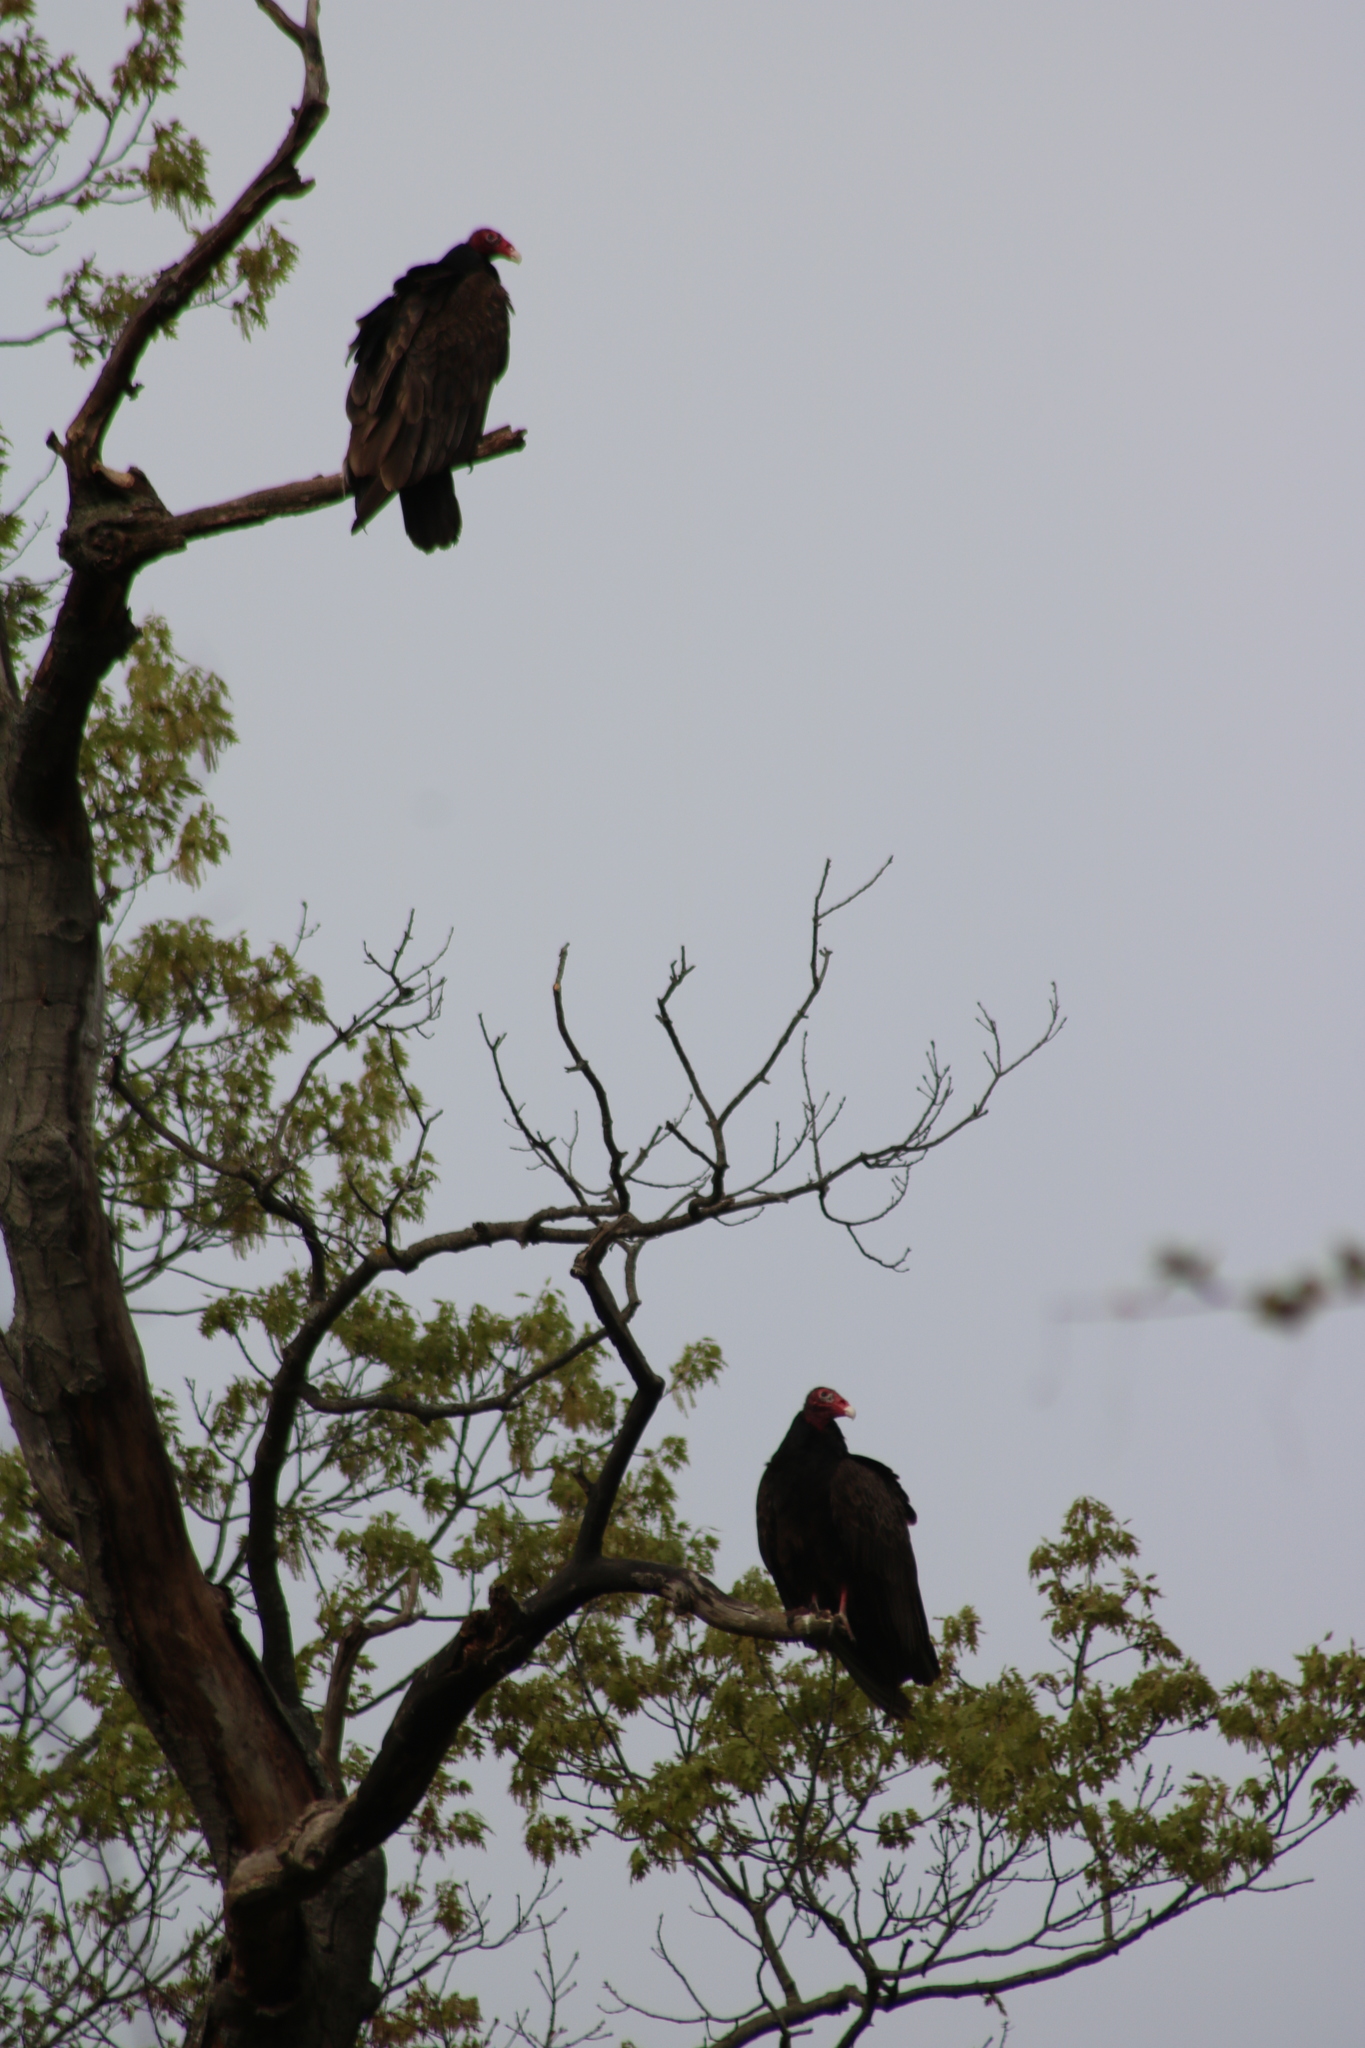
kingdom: Animalia
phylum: Chordata
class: Aves
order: Accipitriformes
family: Cathartidae
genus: Cathartes
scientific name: Cathartes aura
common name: Turkey vulture
